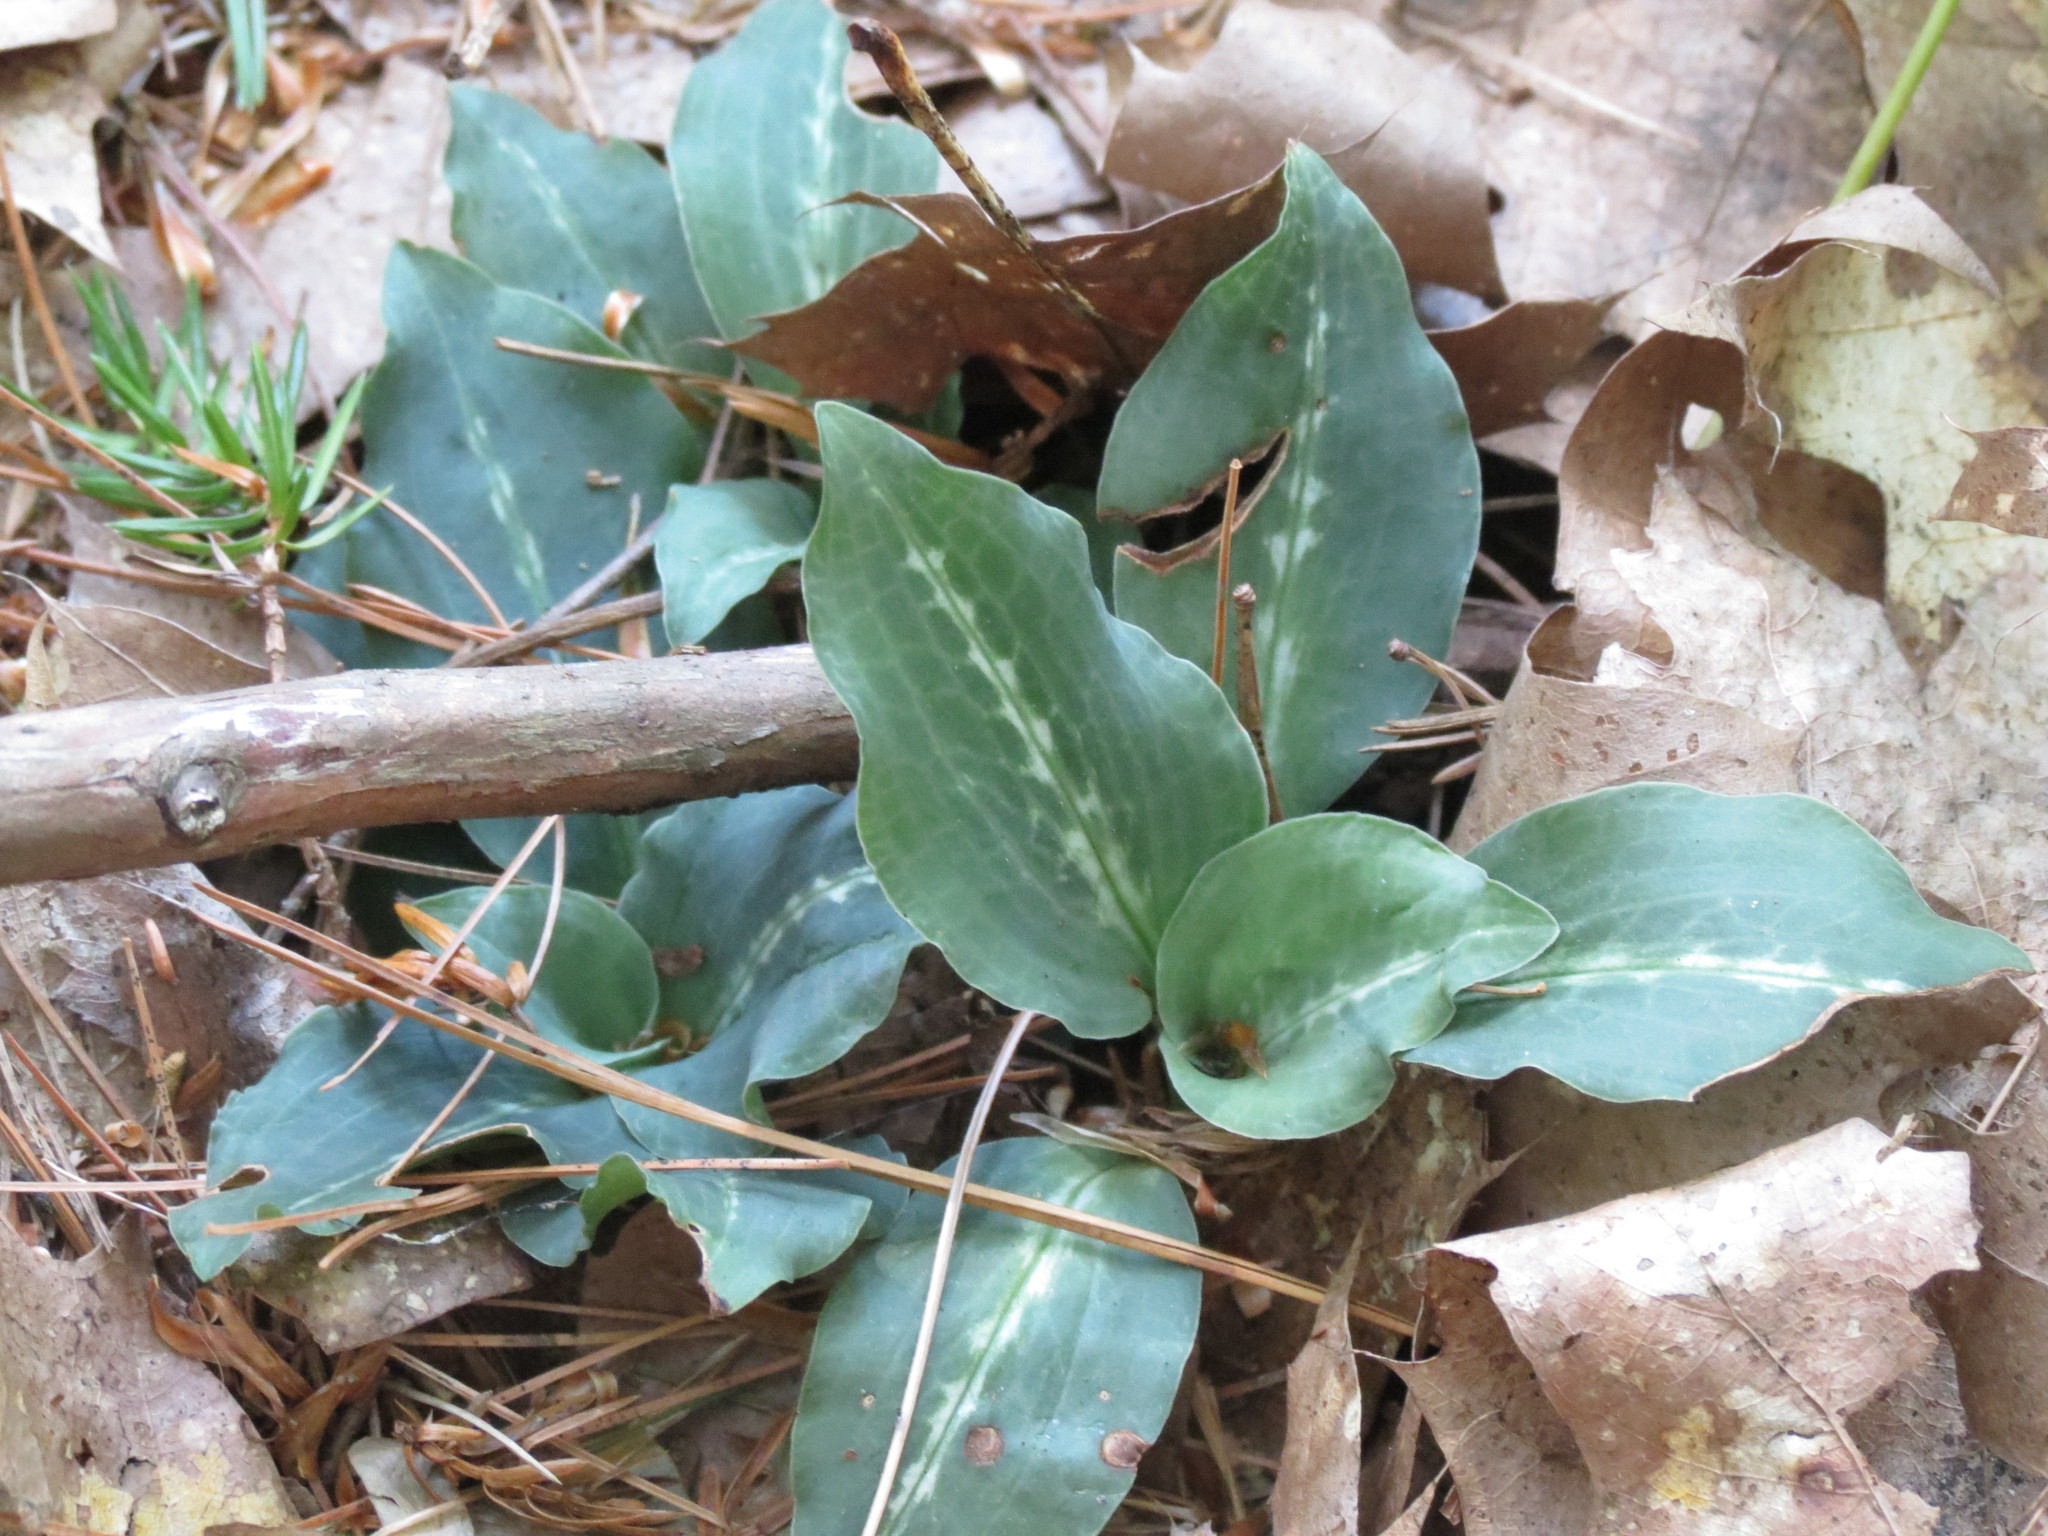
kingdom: Plantae
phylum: Tracheophyta
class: Liliopsida
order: Asparagales
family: Orchidaceae
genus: Goodyera
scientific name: Goodyera oblongifolia
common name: Giant rattlesnake-plantain
